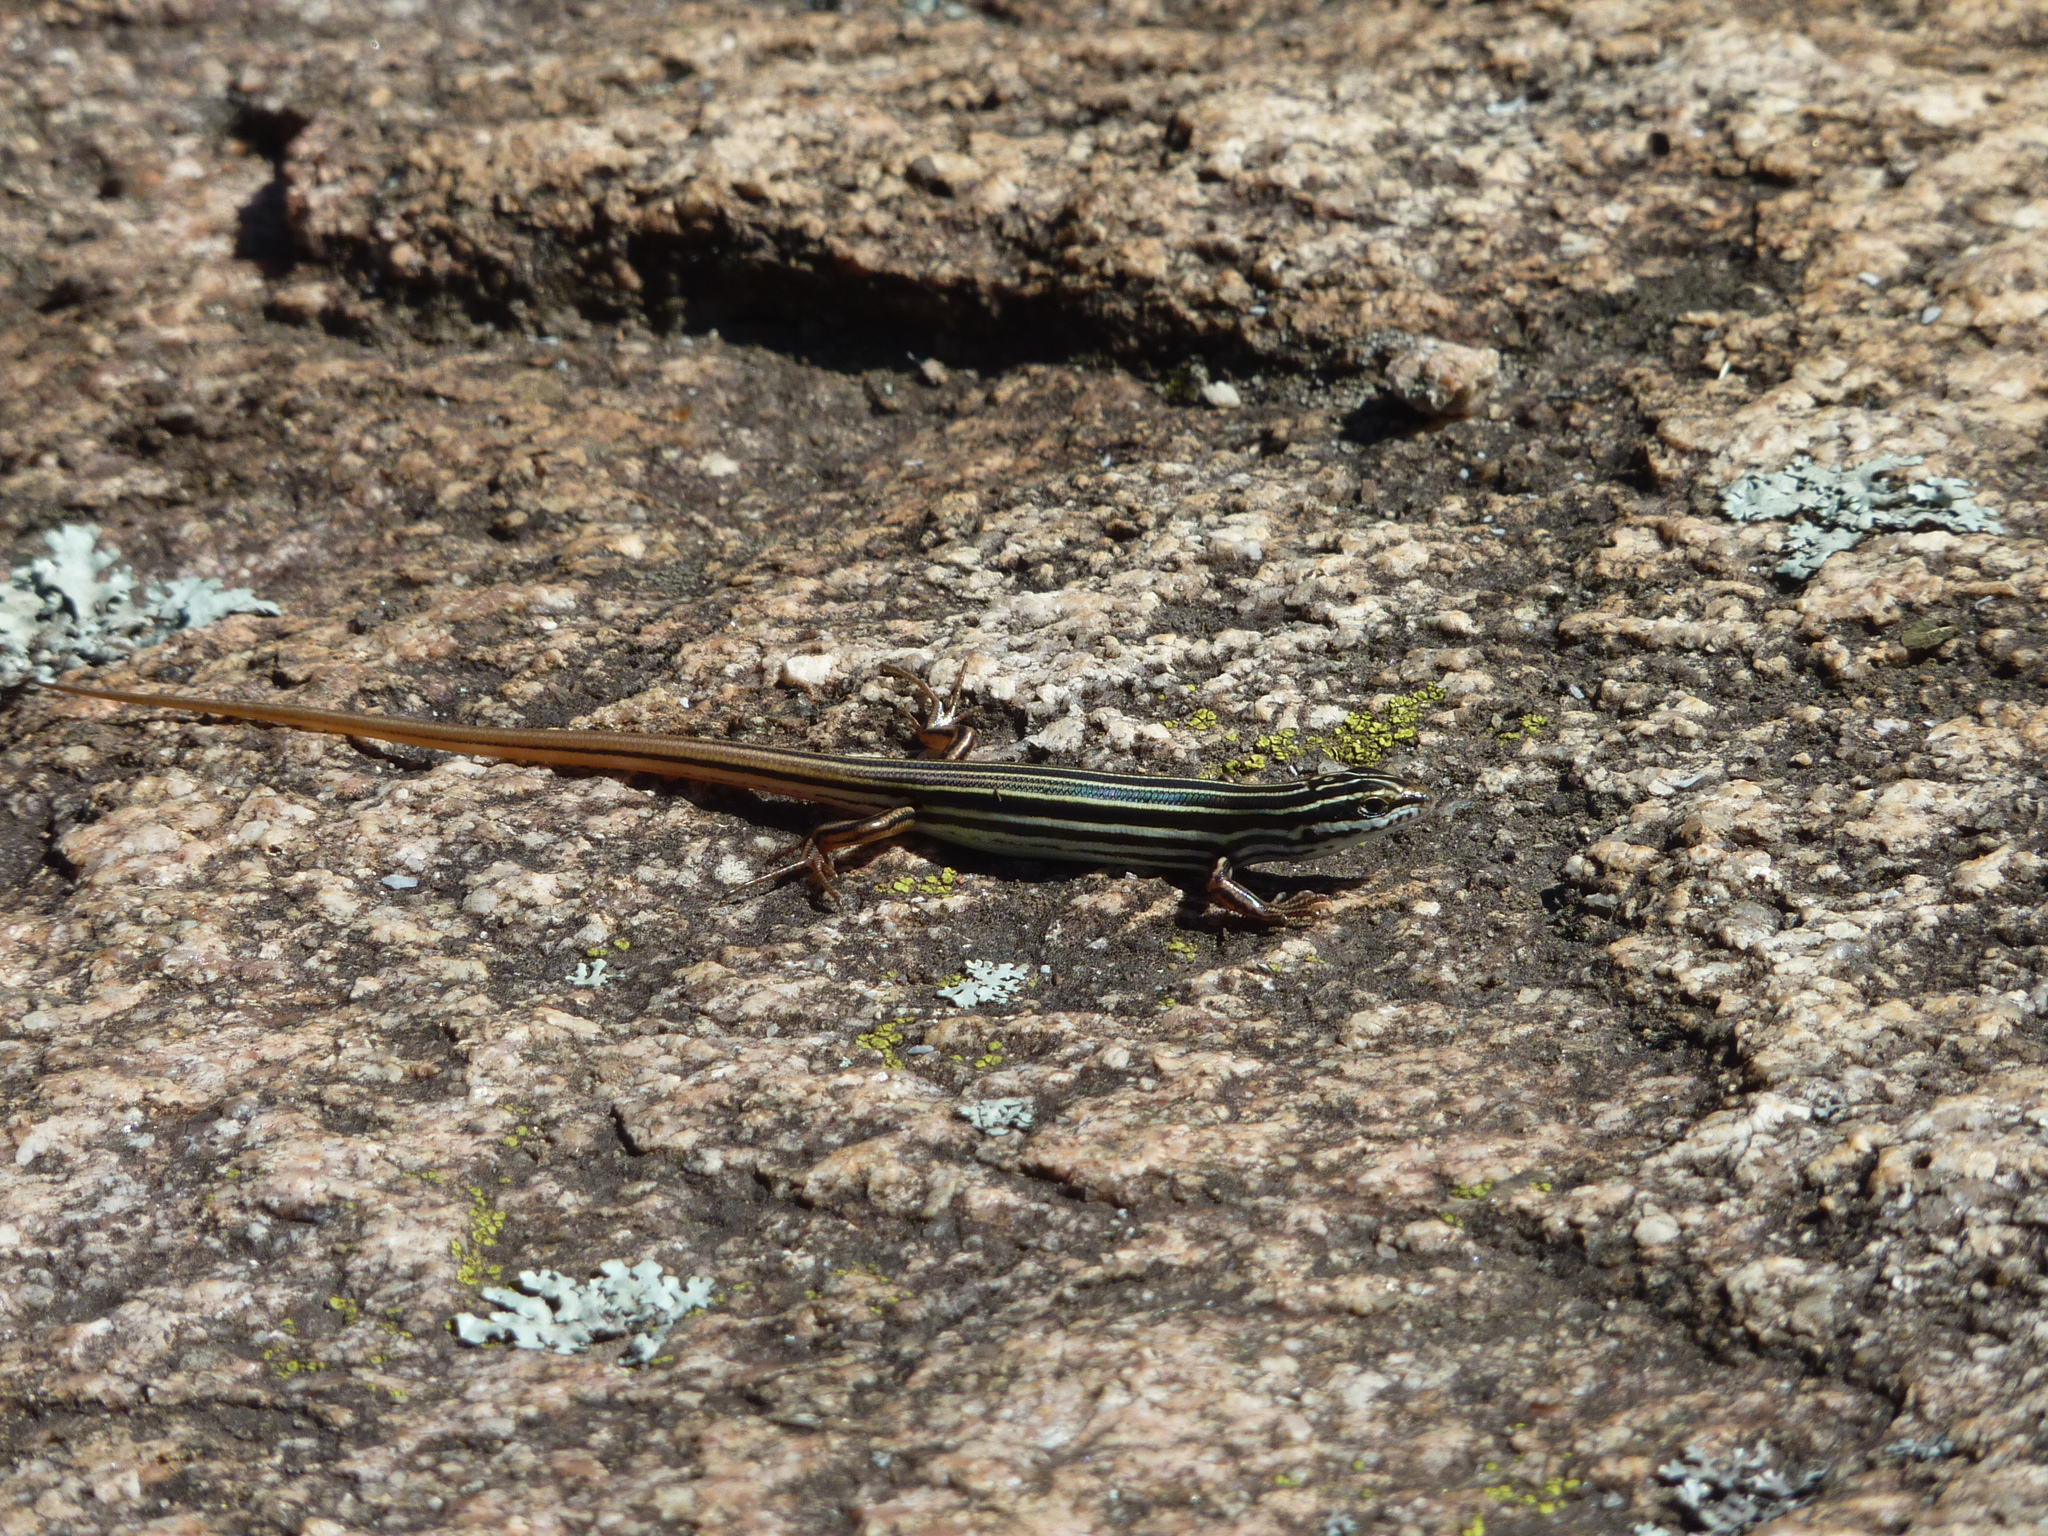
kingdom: Animalia
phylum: Chordata
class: Squamata
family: Scincidae
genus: Ctenotus
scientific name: Ctenotus taeniolatus
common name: Copper-tailed skink
